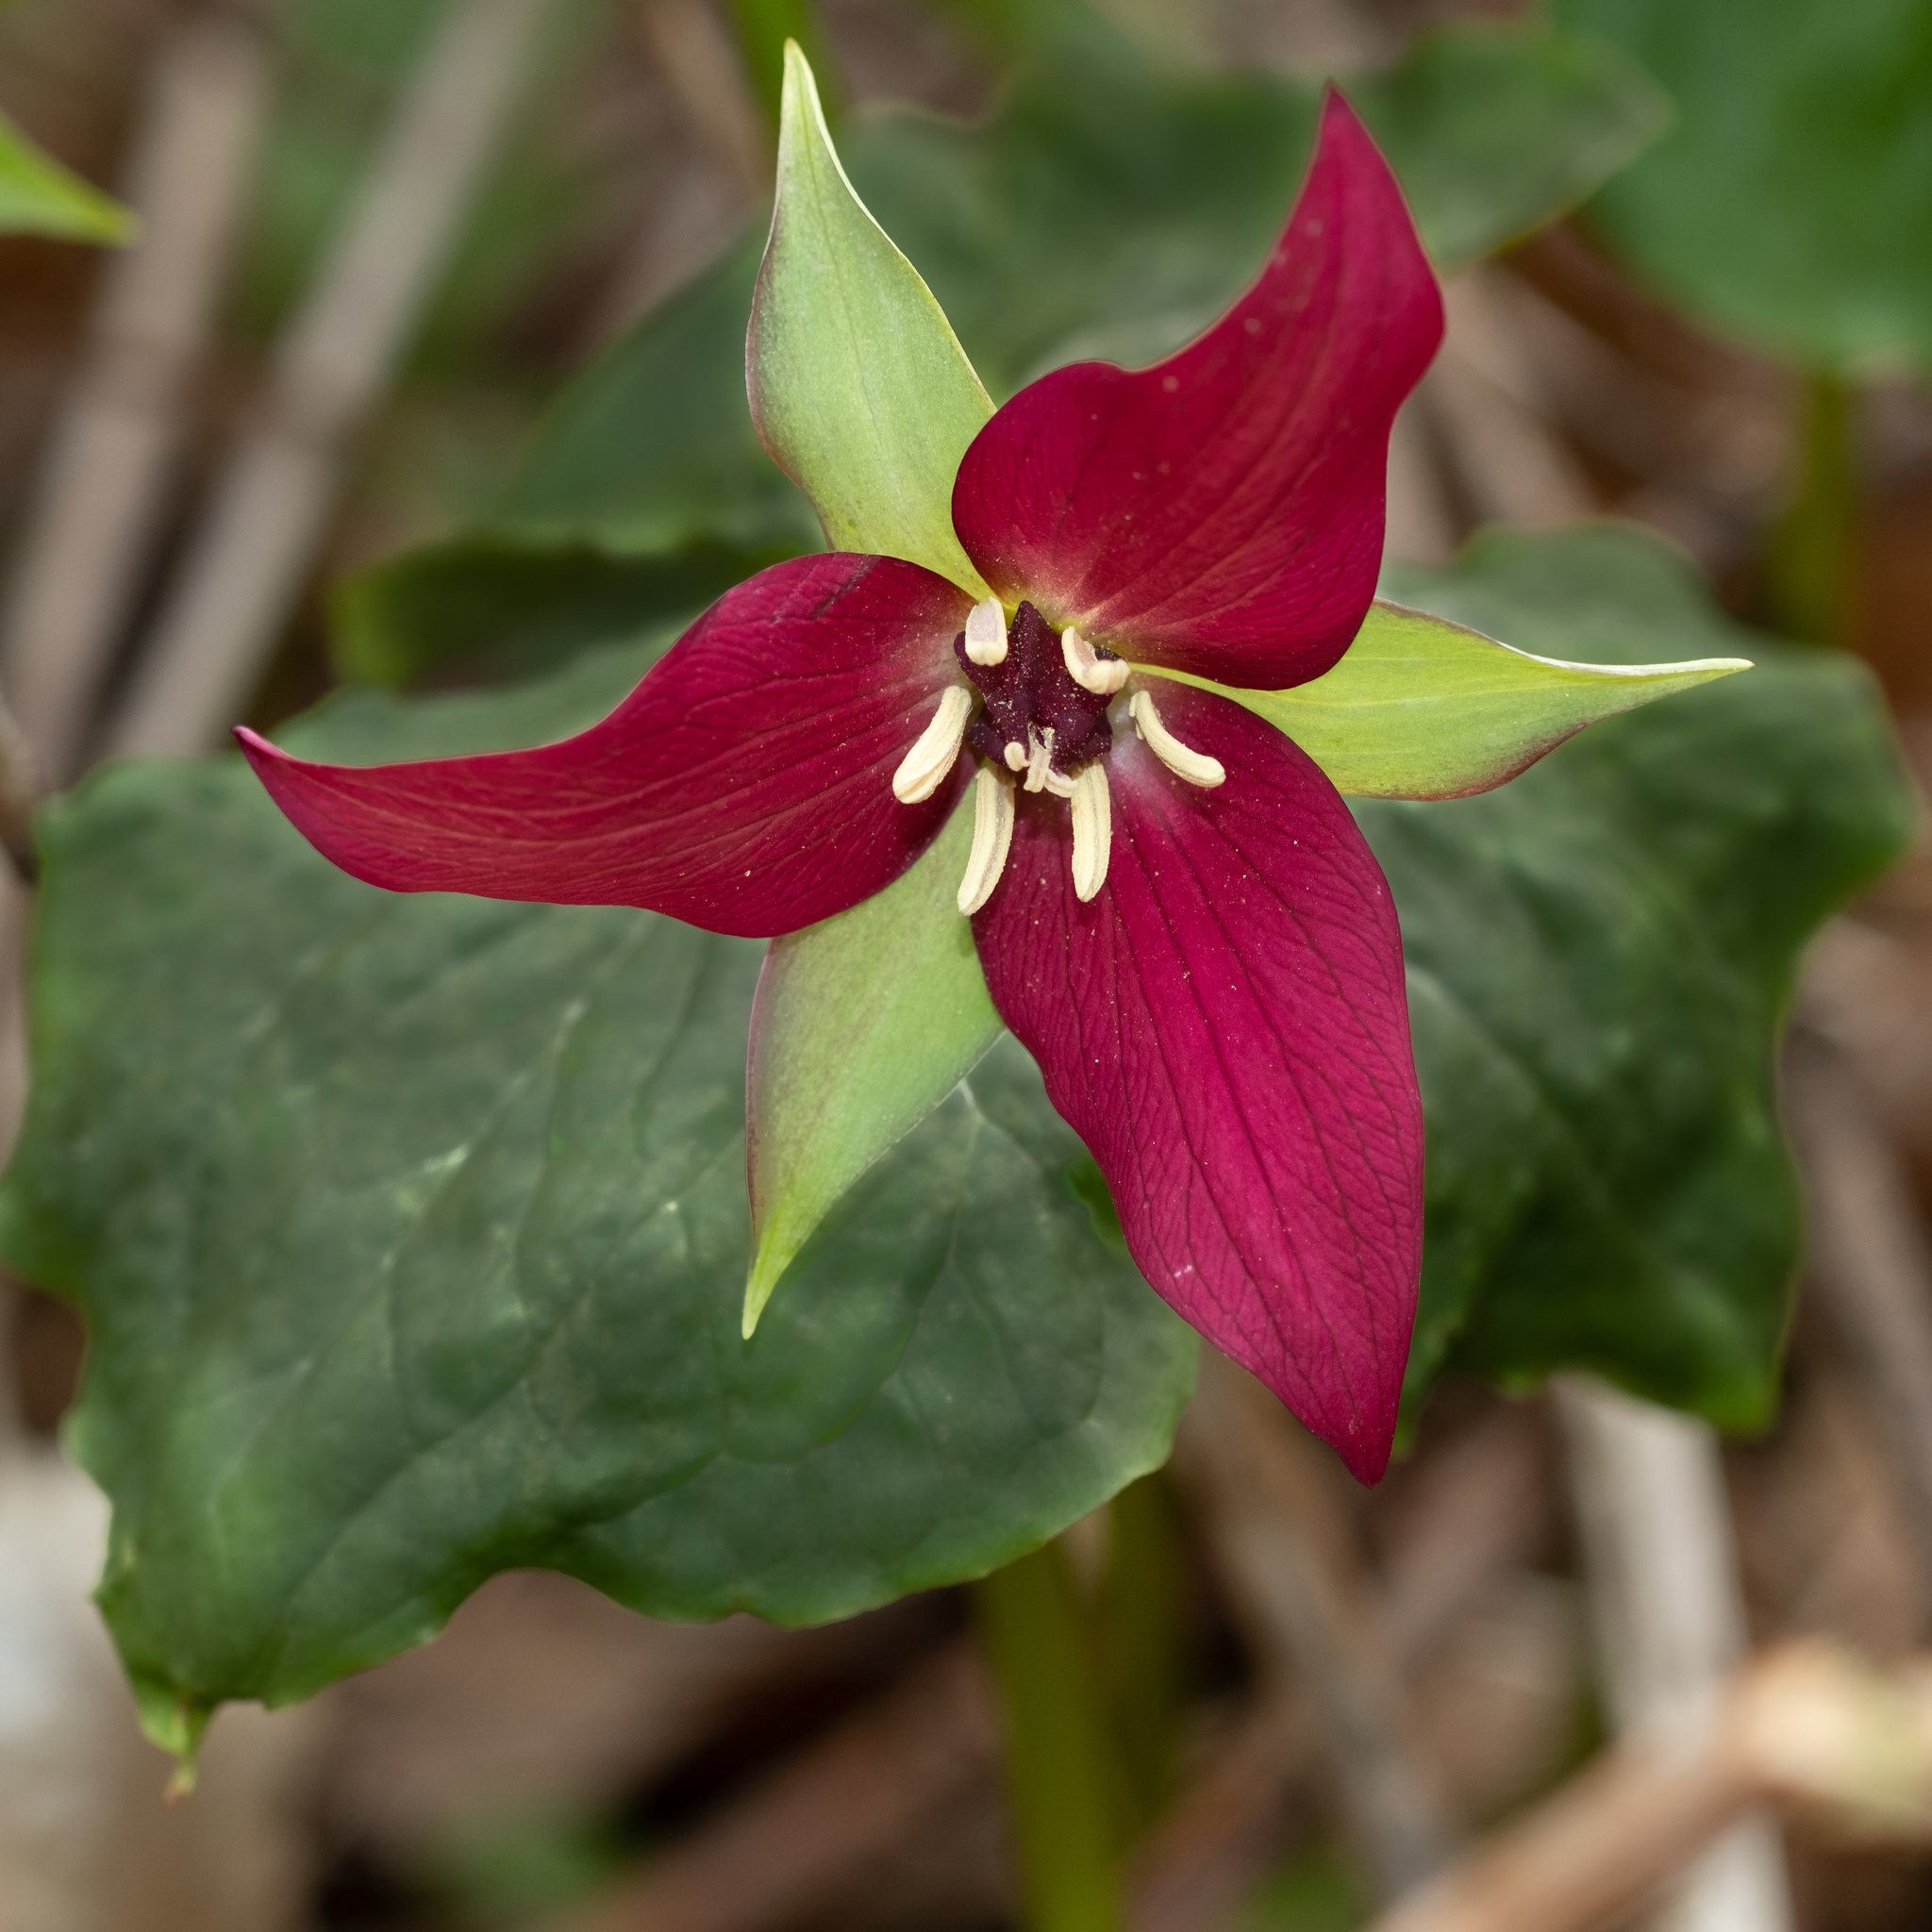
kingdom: Plantae
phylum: Tracheophyta
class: Liliopsida
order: Liliales
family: Melanthiaceae
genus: Trillium
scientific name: Trillium erectum
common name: Purple trillium
